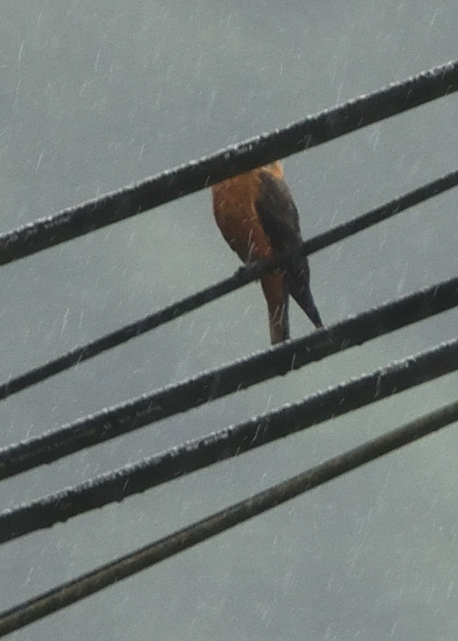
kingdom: Animalia
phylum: Chordata
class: Aves
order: Passeriformes
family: Tyrannidae
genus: Hirundinea
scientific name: Hirundinea ferruginea
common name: Cliff flycatcher
